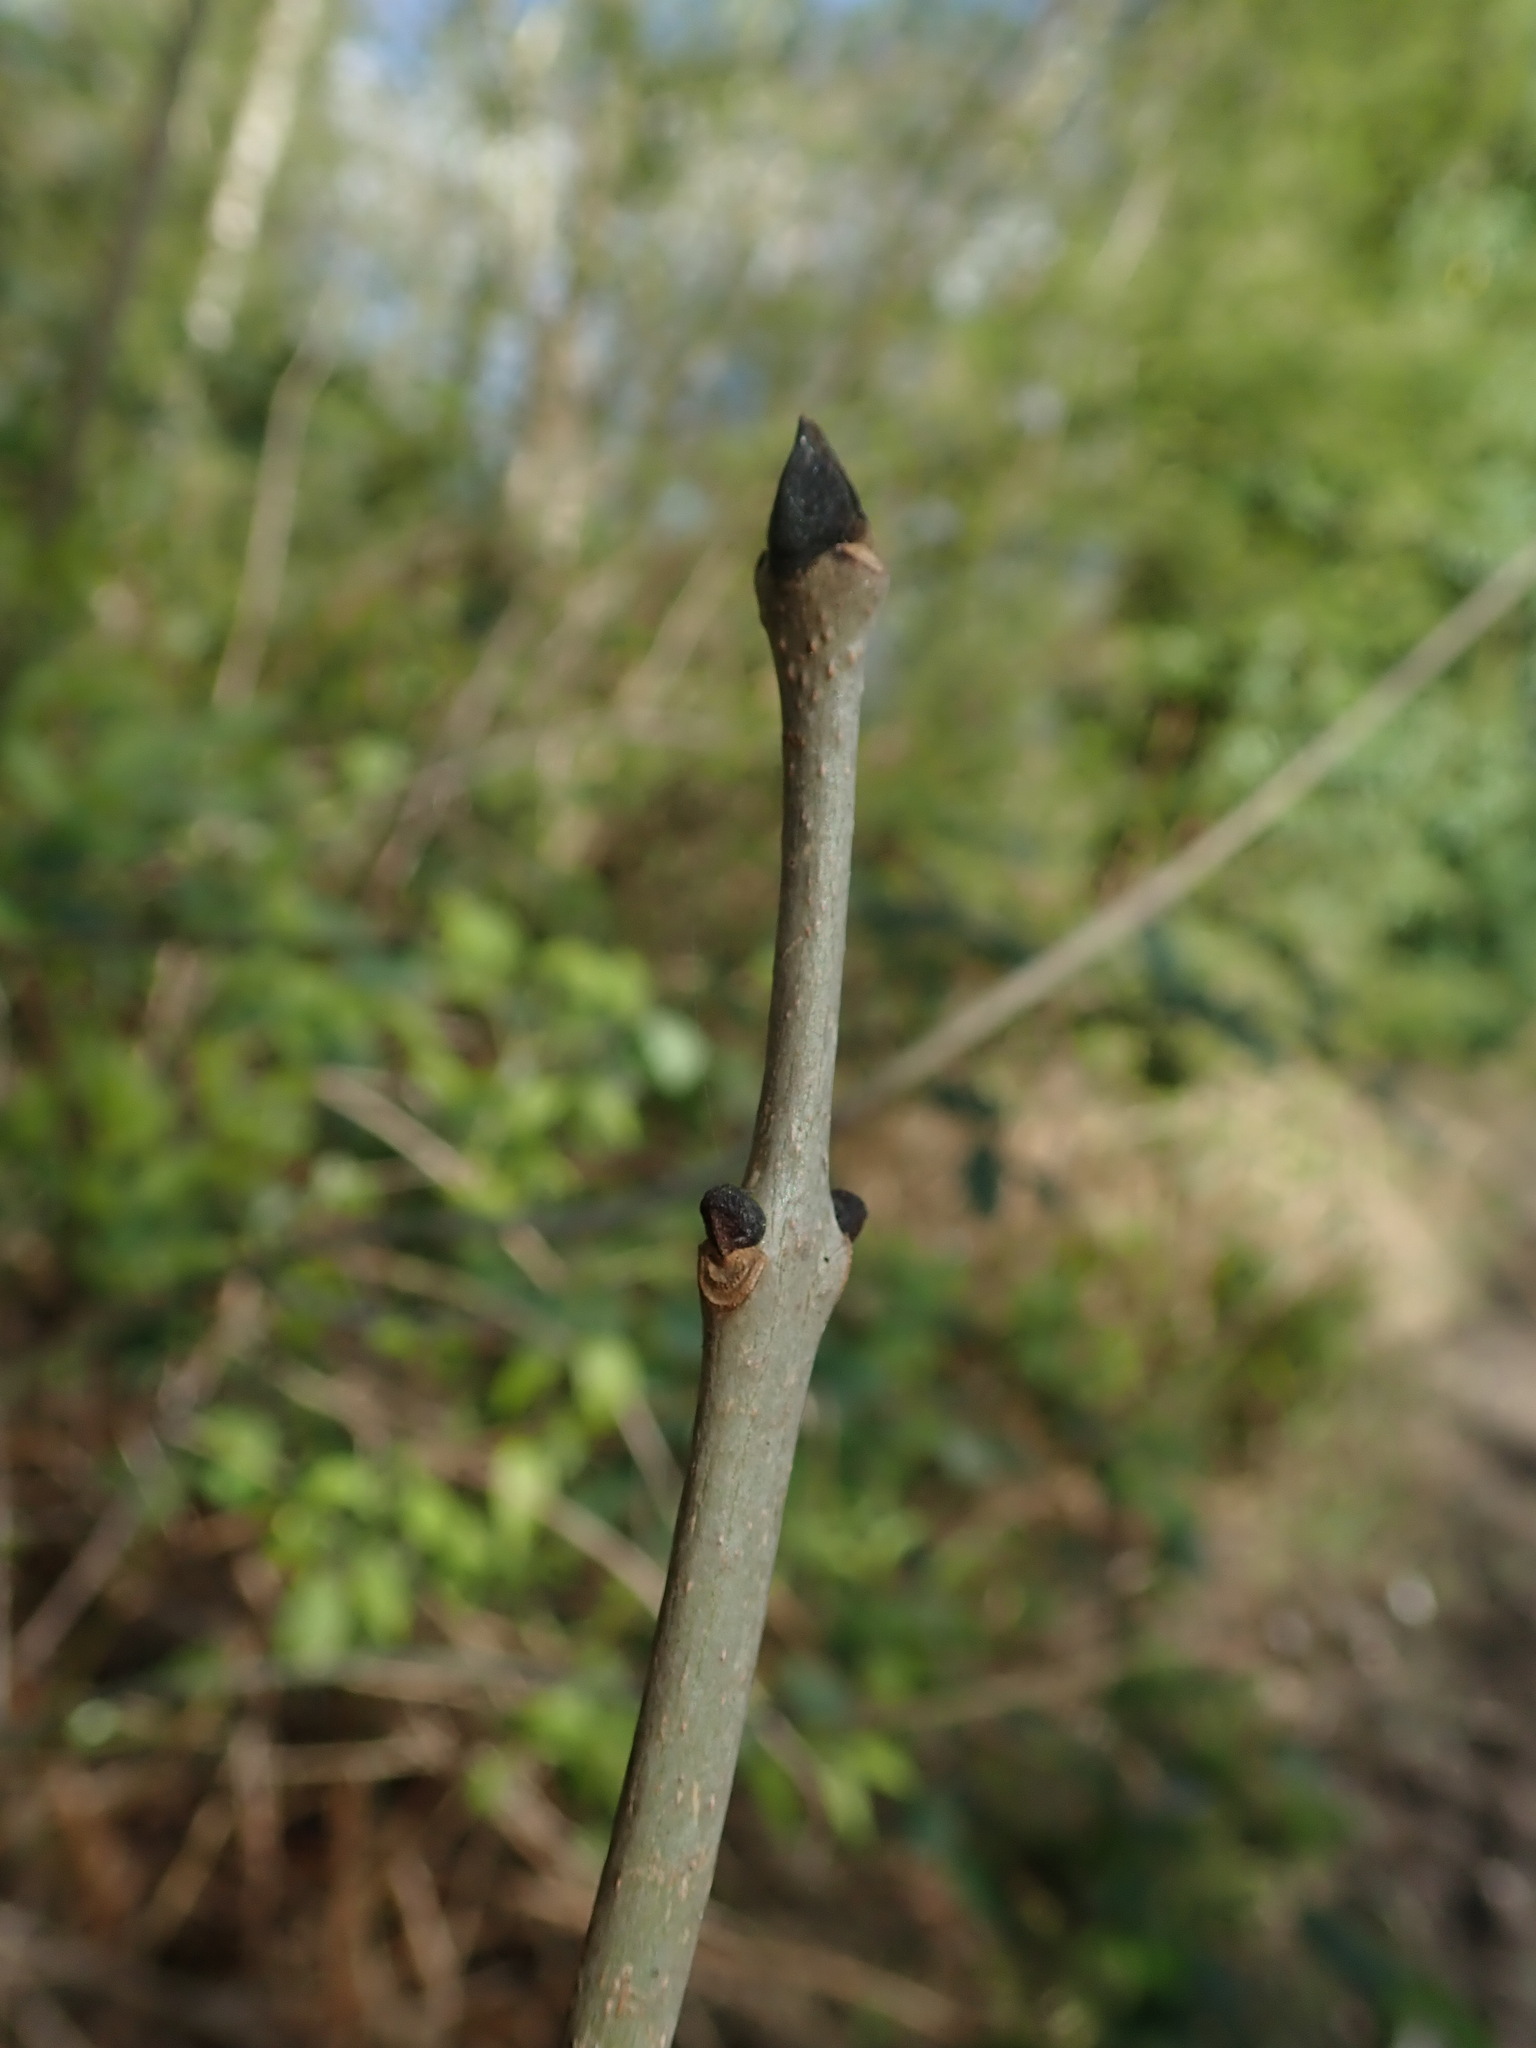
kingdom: Plantae
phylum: Tracheophyta
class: Magnoliopsida
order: Lamiales
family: Oleaceae
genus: Fraxinus
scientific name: Fraxinus excelsior
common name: European ash
